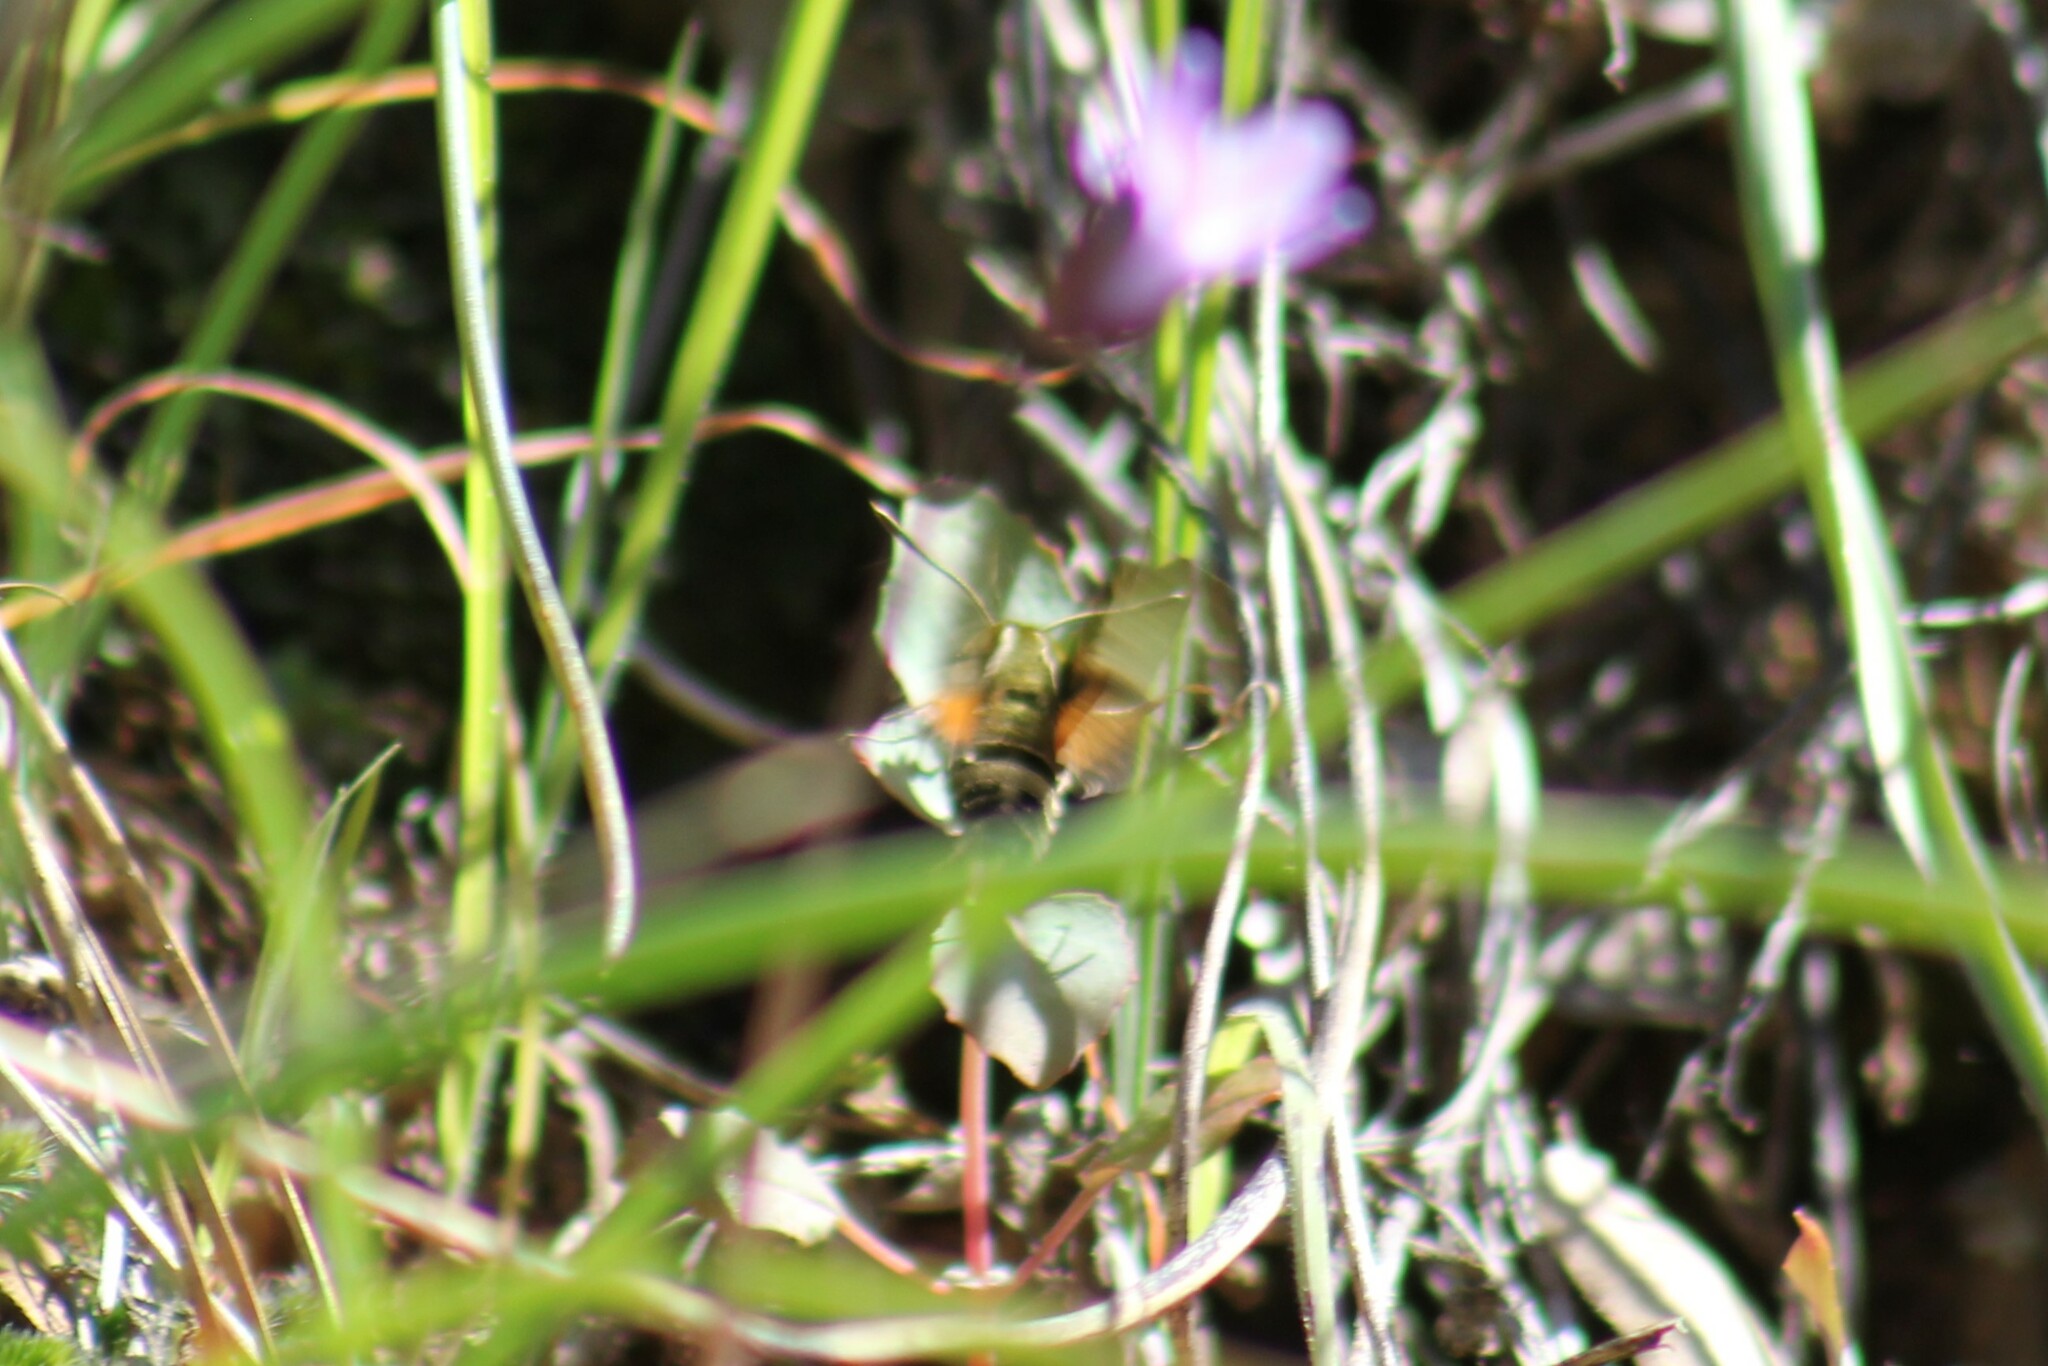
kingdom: Animalia
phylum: Arthropoda
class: Insecta
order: Lepidoptera
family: Sphingidae
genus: Proserpinus
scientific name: Proserpinus clarkiae
